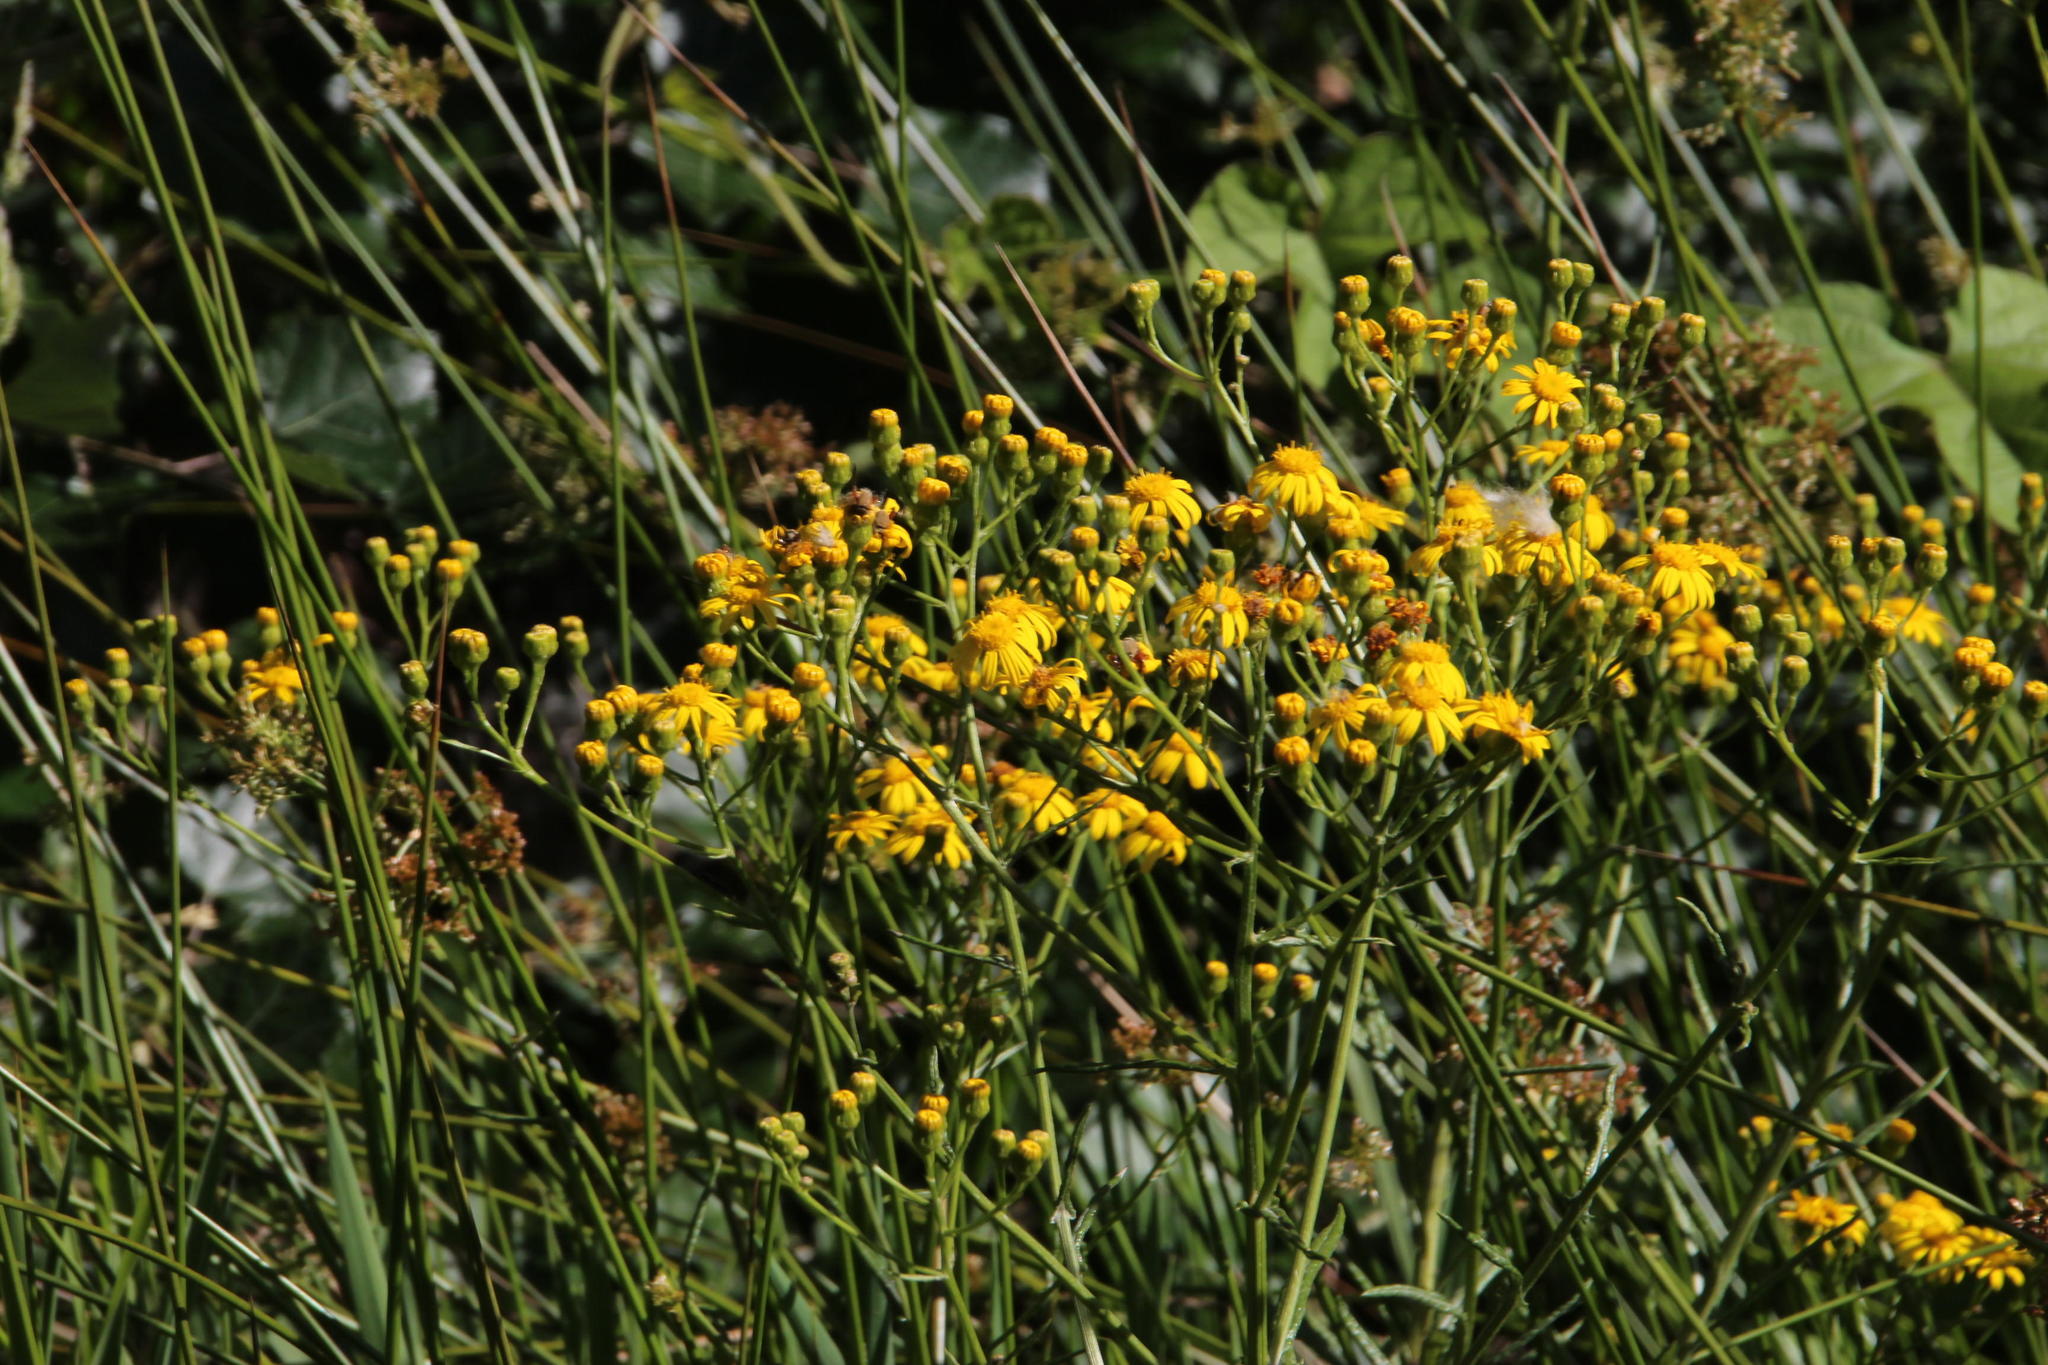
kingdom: Plantae
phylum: Tracheophyta
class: Magnoliopsida
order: Asterales
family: Asteraceae
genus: Senecio
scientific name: Senecio pterophorus
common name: Shoddy ragwort
